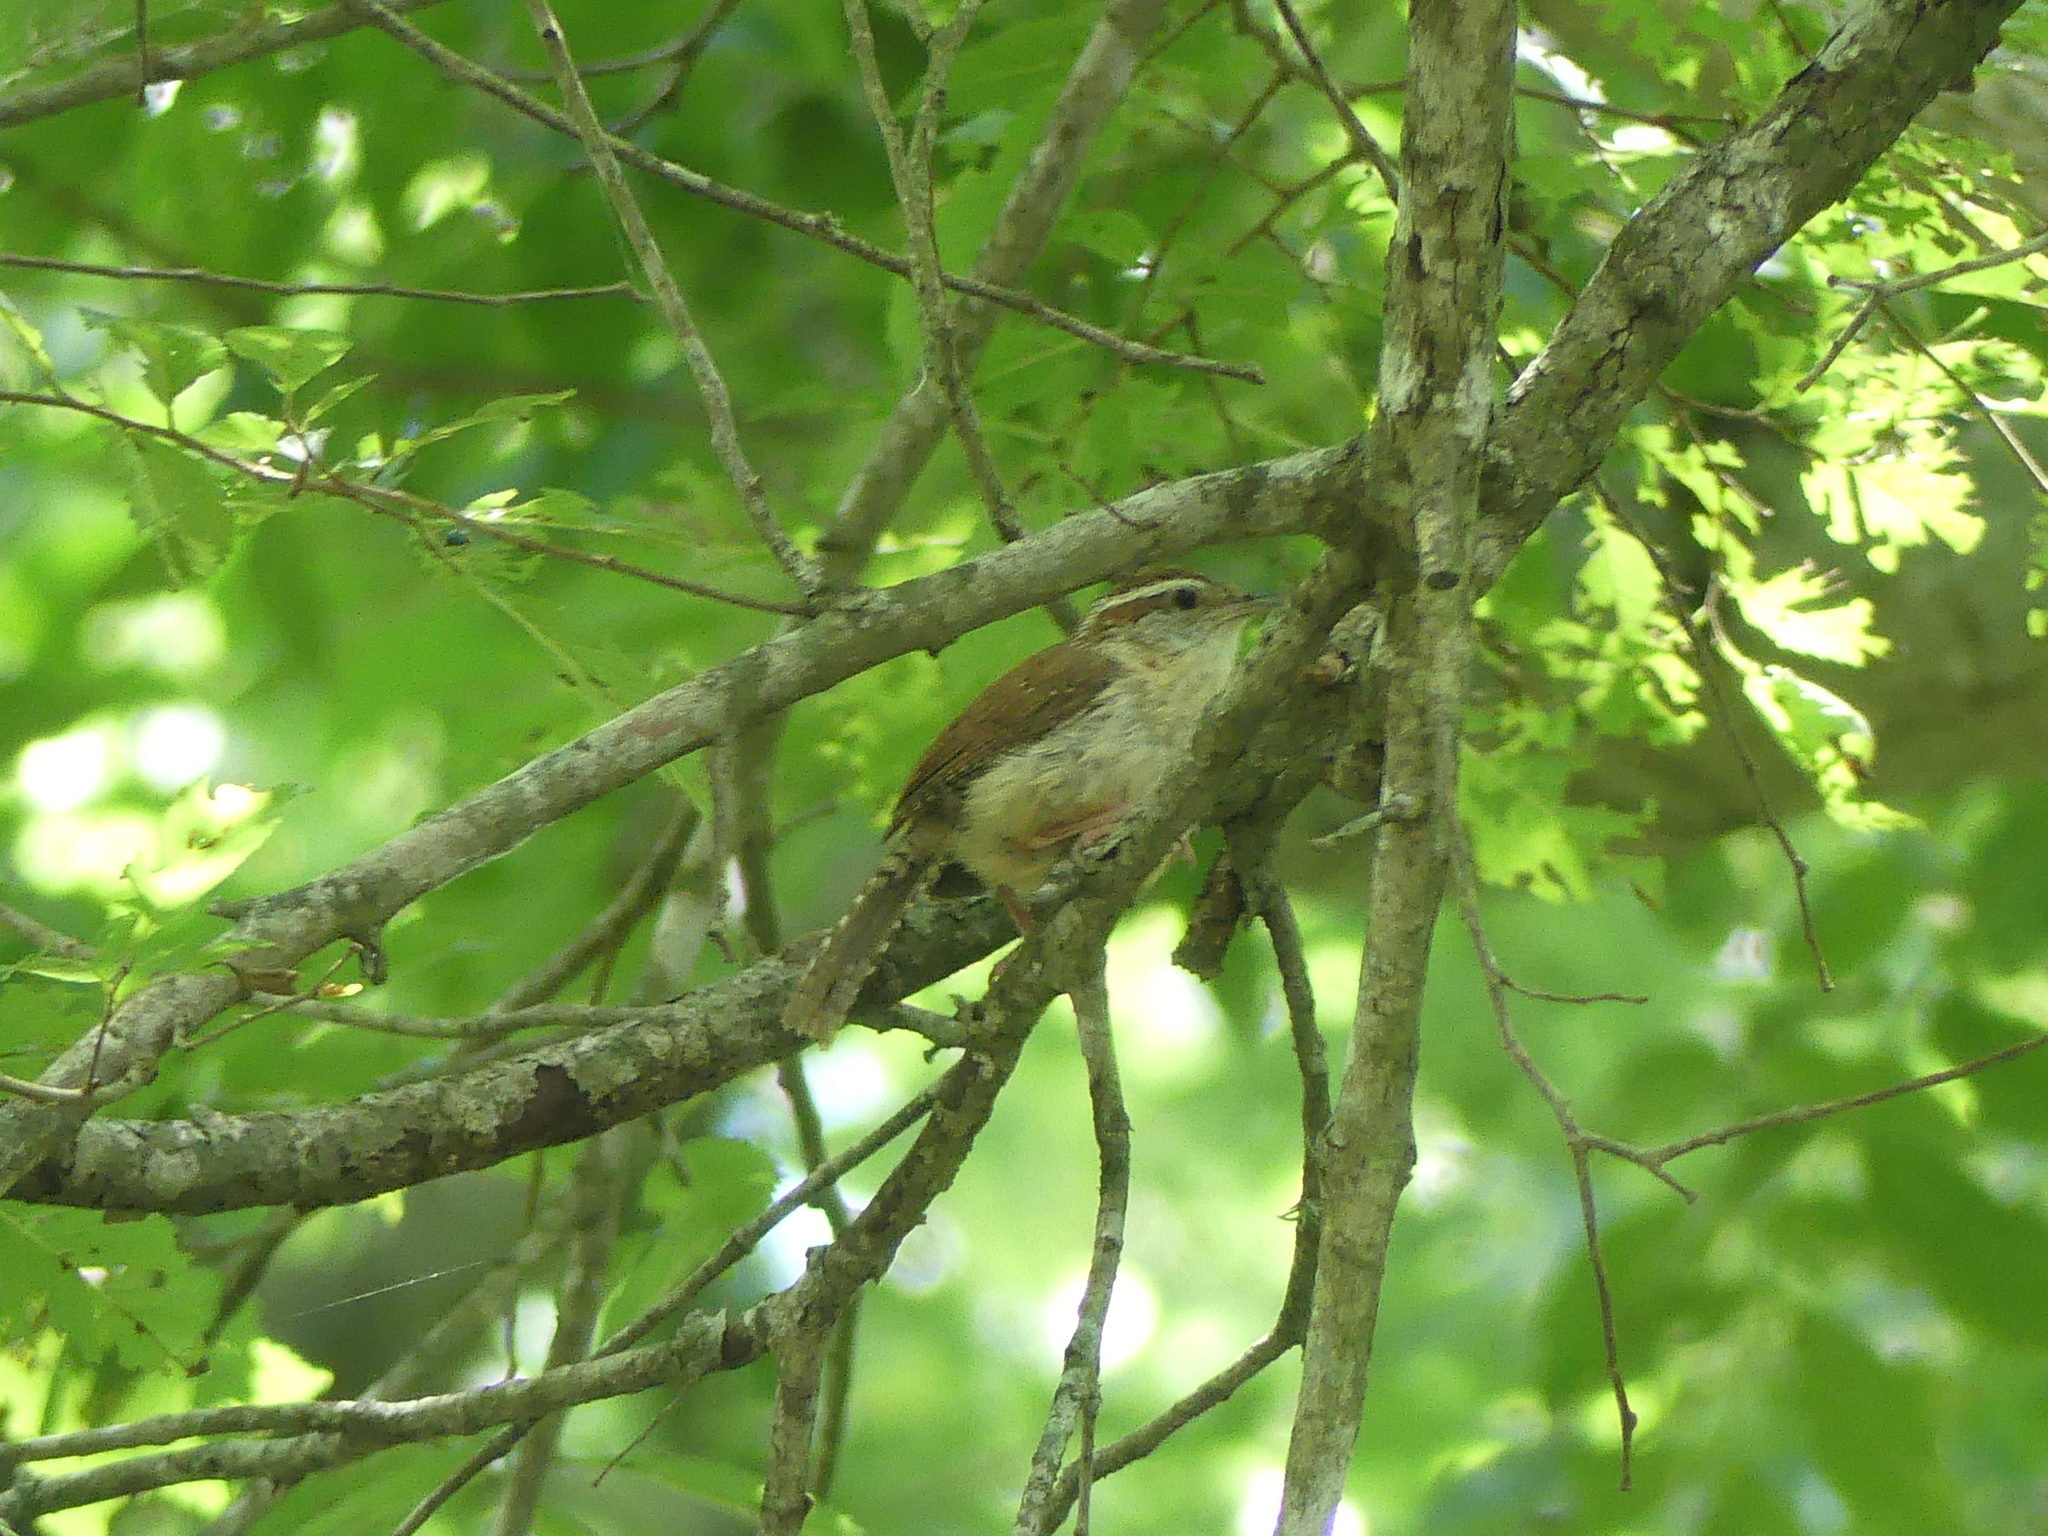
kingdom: Animalia
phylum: Chordata
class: Aves
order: Passeriformes
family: Troglodytidae
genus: Thryothorus
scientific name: Thryothorus ludovicianus
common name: Carolina wren
